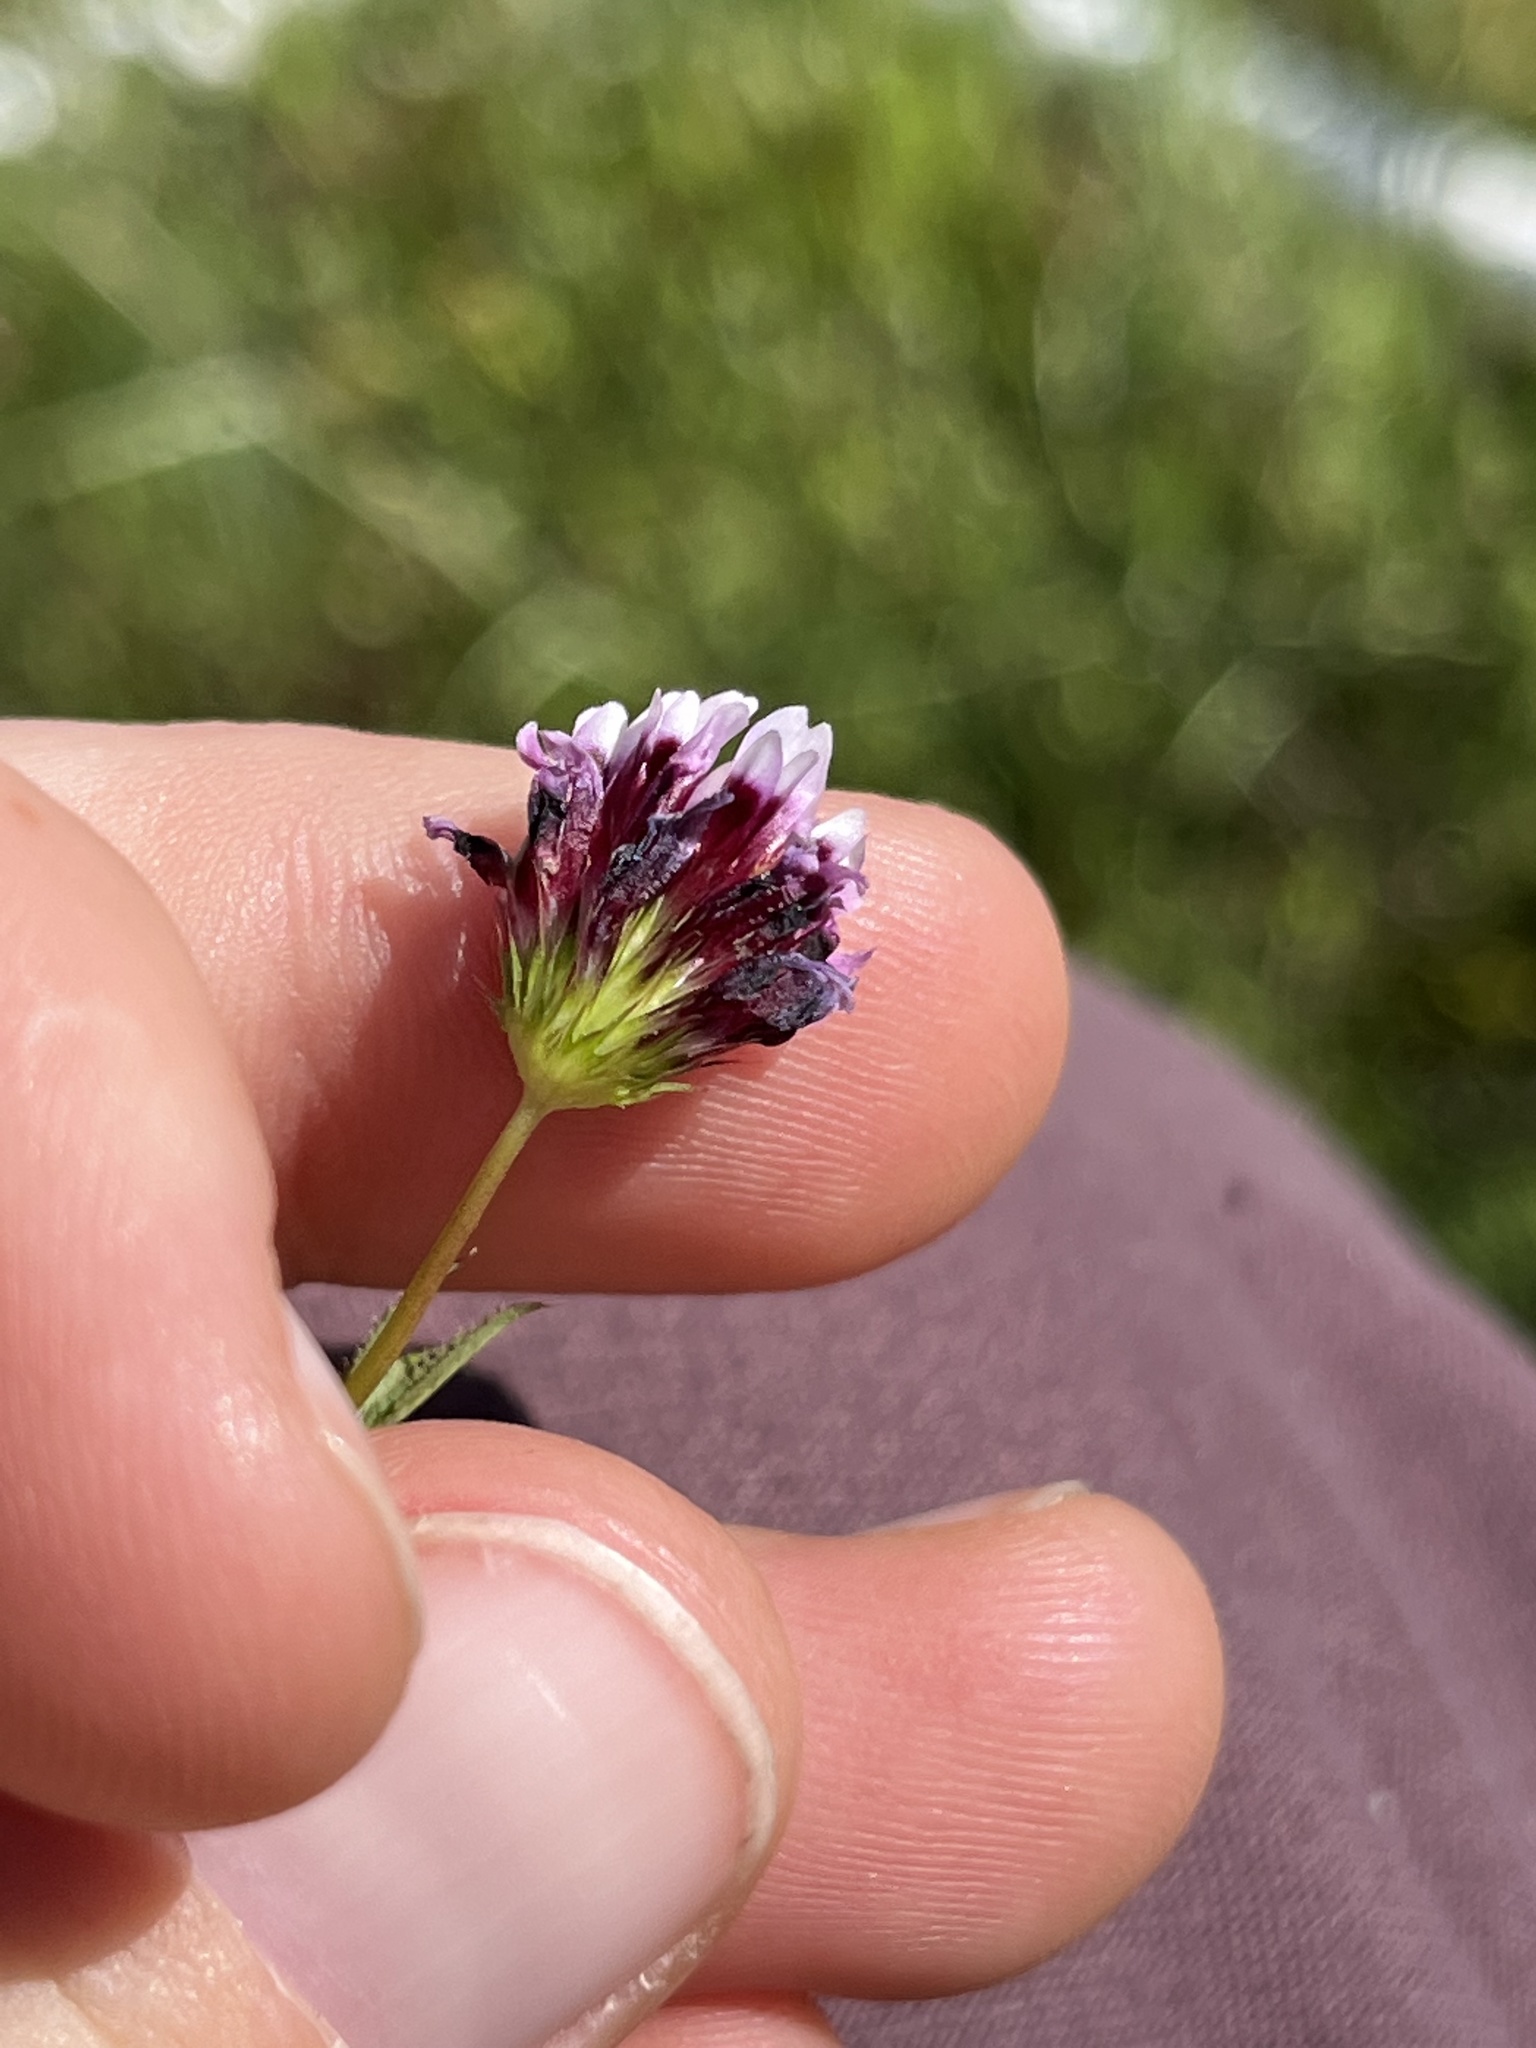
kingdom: Plantae
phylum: Tracheophyta
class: Magnoliopsida
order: Fabales
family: Fabaceae
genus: Trifolium
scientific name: Trifolium willdenovii
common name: Tomcat clover
